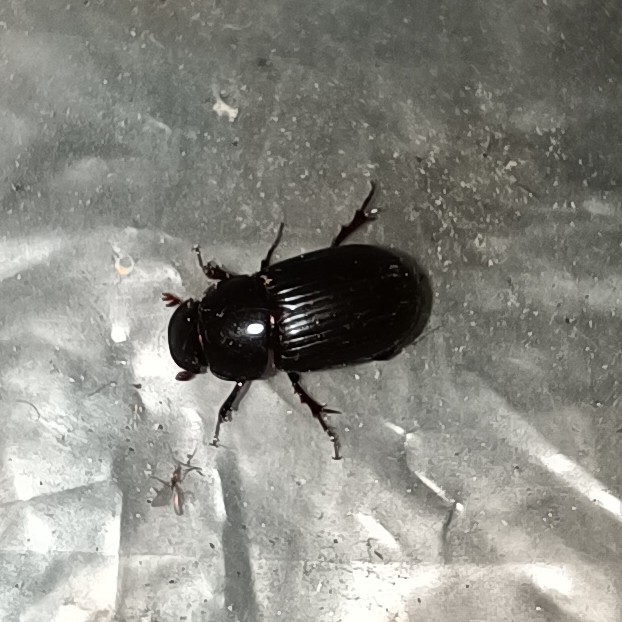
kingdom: Animalia
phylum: Arthropoda
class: Insecta
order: Coleoptera
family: Scarabaeidae
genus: Acrossus
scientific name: Acrossus rufipes
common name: Night-flying dung beetle
